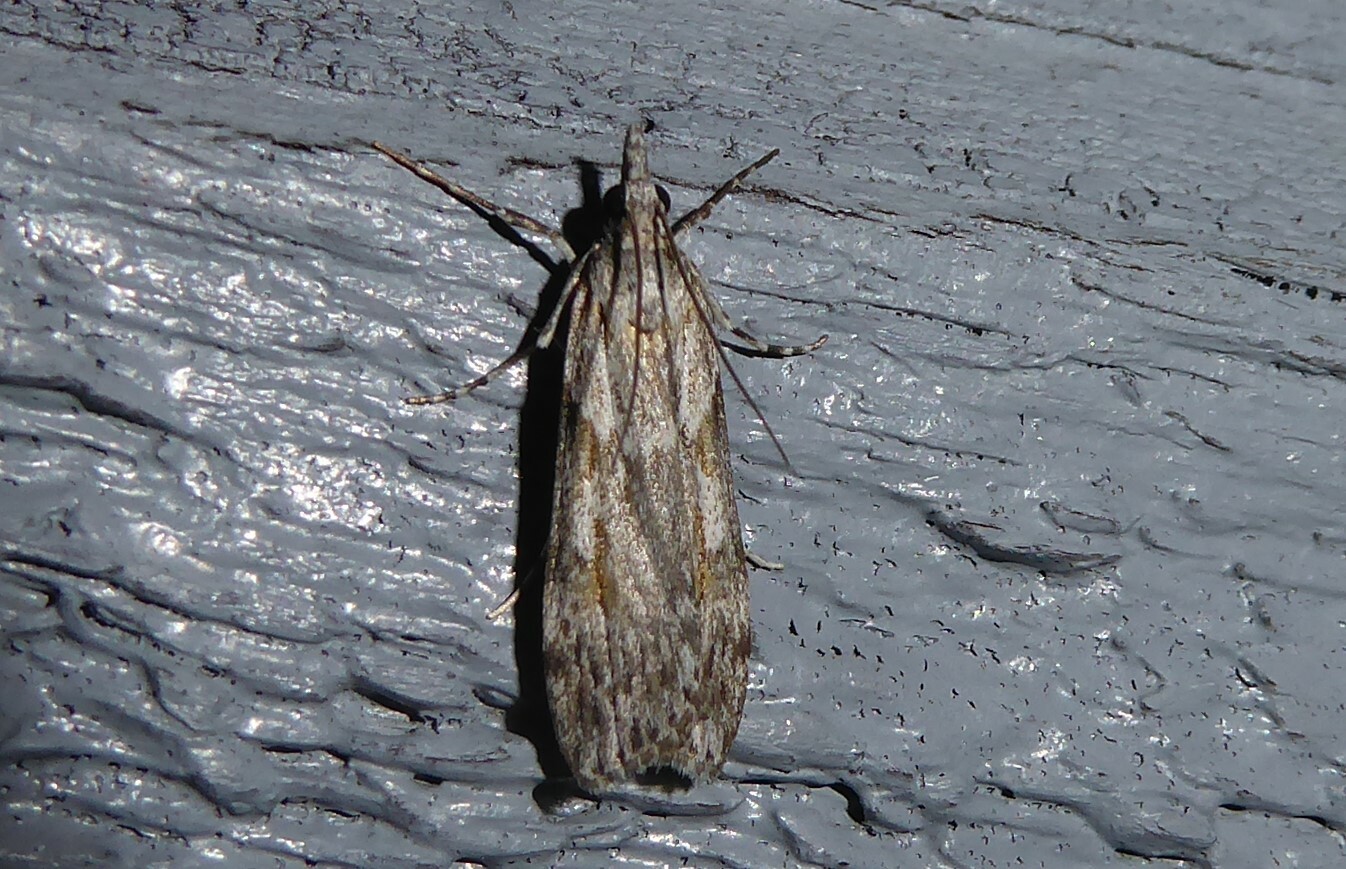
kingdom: Animalia
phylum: Arthropoda
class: Insecta
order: Lepidoptera
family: Crambidae
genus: Scoparia
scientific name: Scoparia halopis
